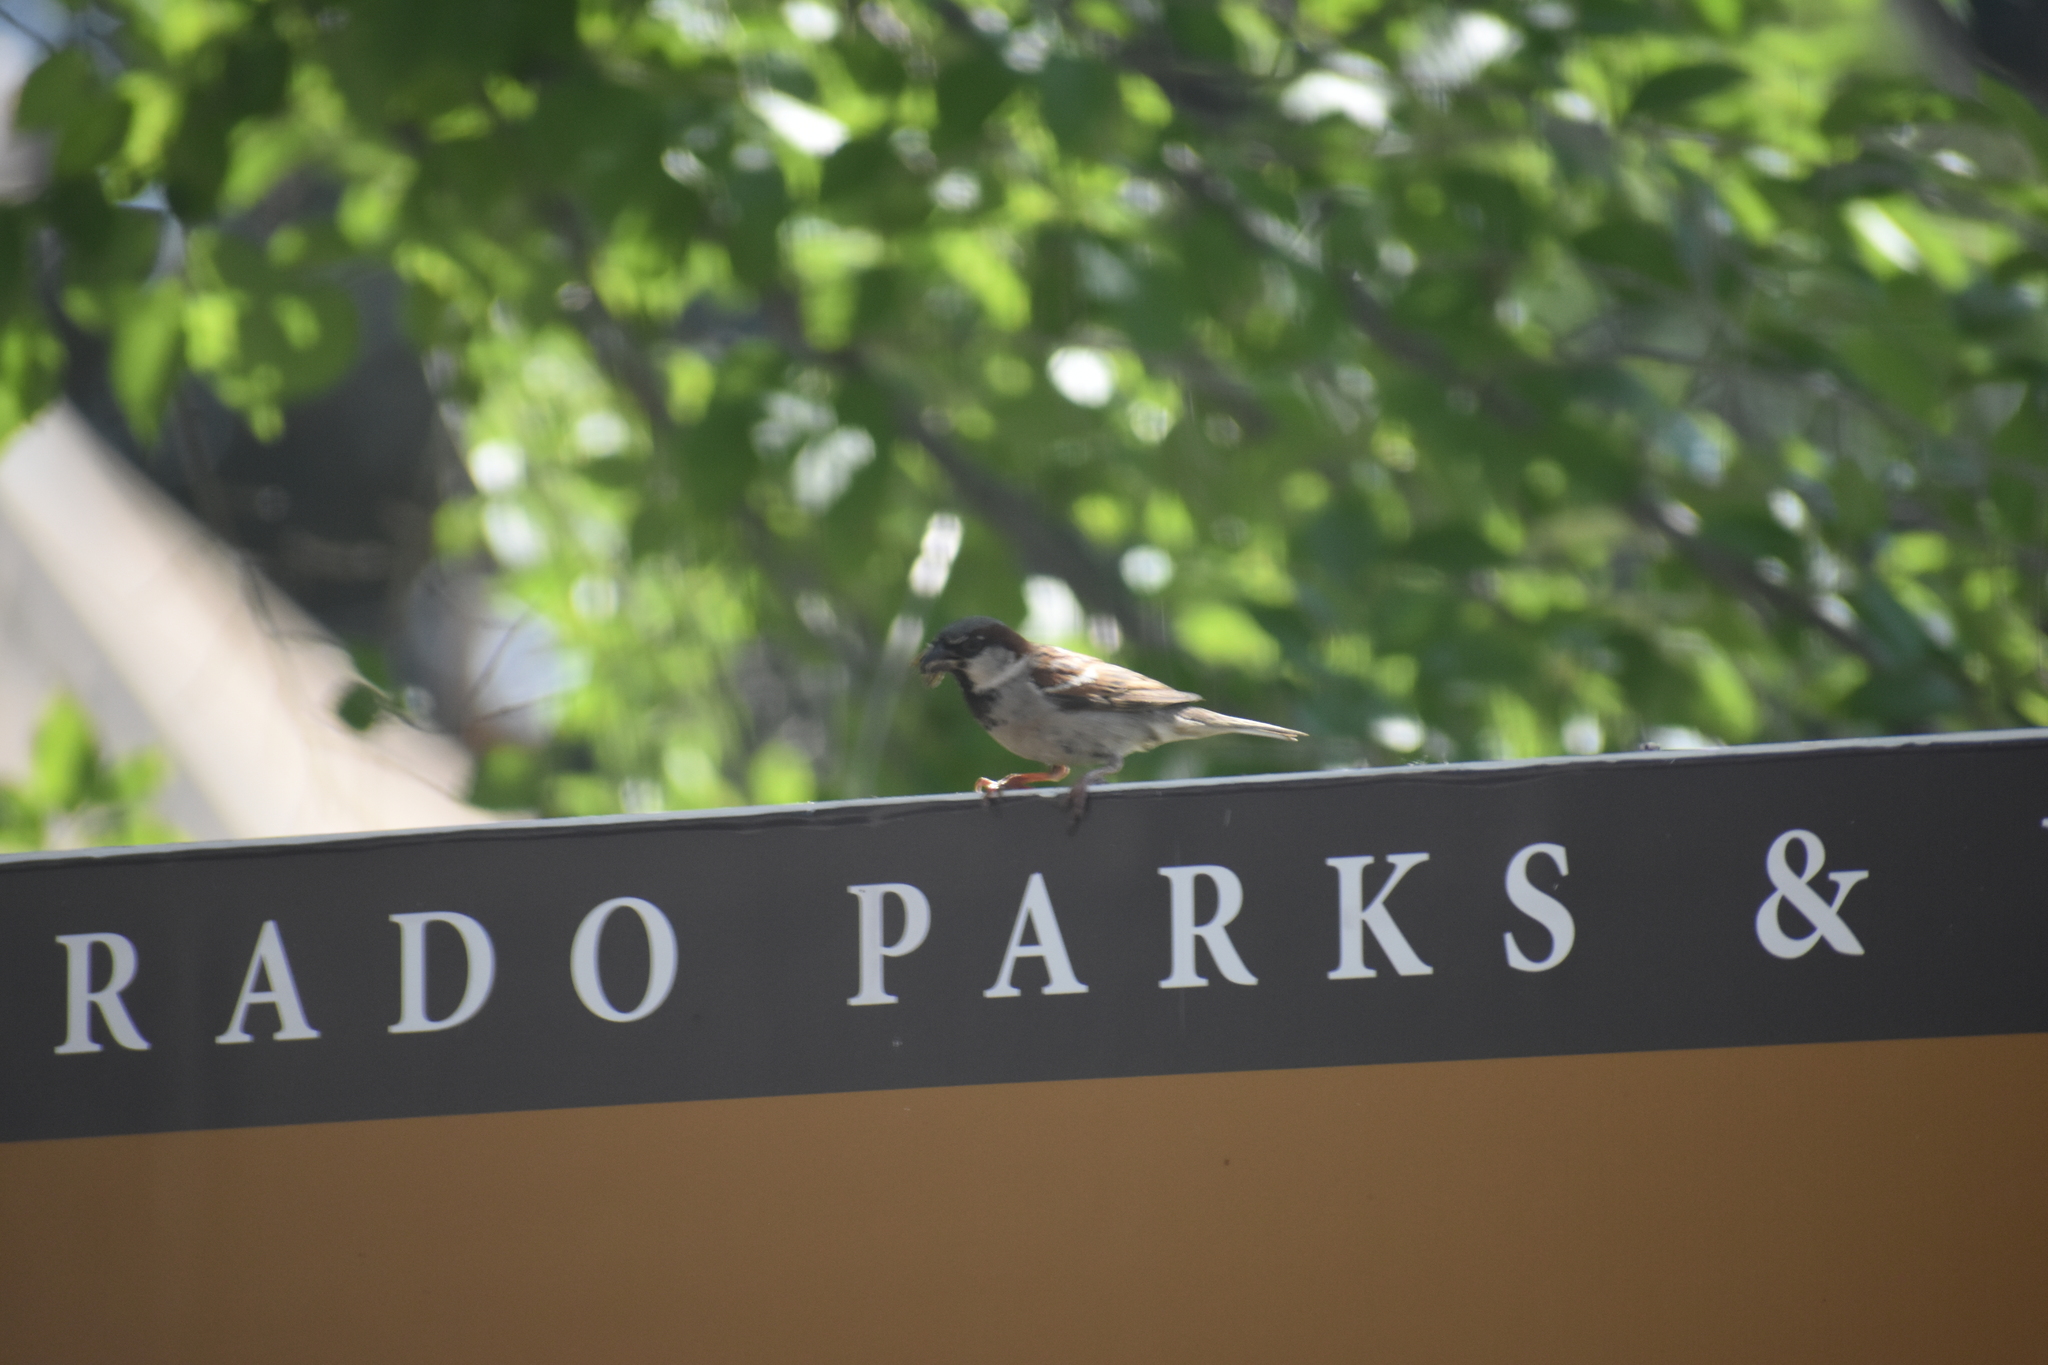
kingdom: Animalia
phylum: Chordata
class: Aves
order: Passeriformes
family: Passeridae
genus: Passer
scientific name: Passer domesticus
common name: House sparrow
